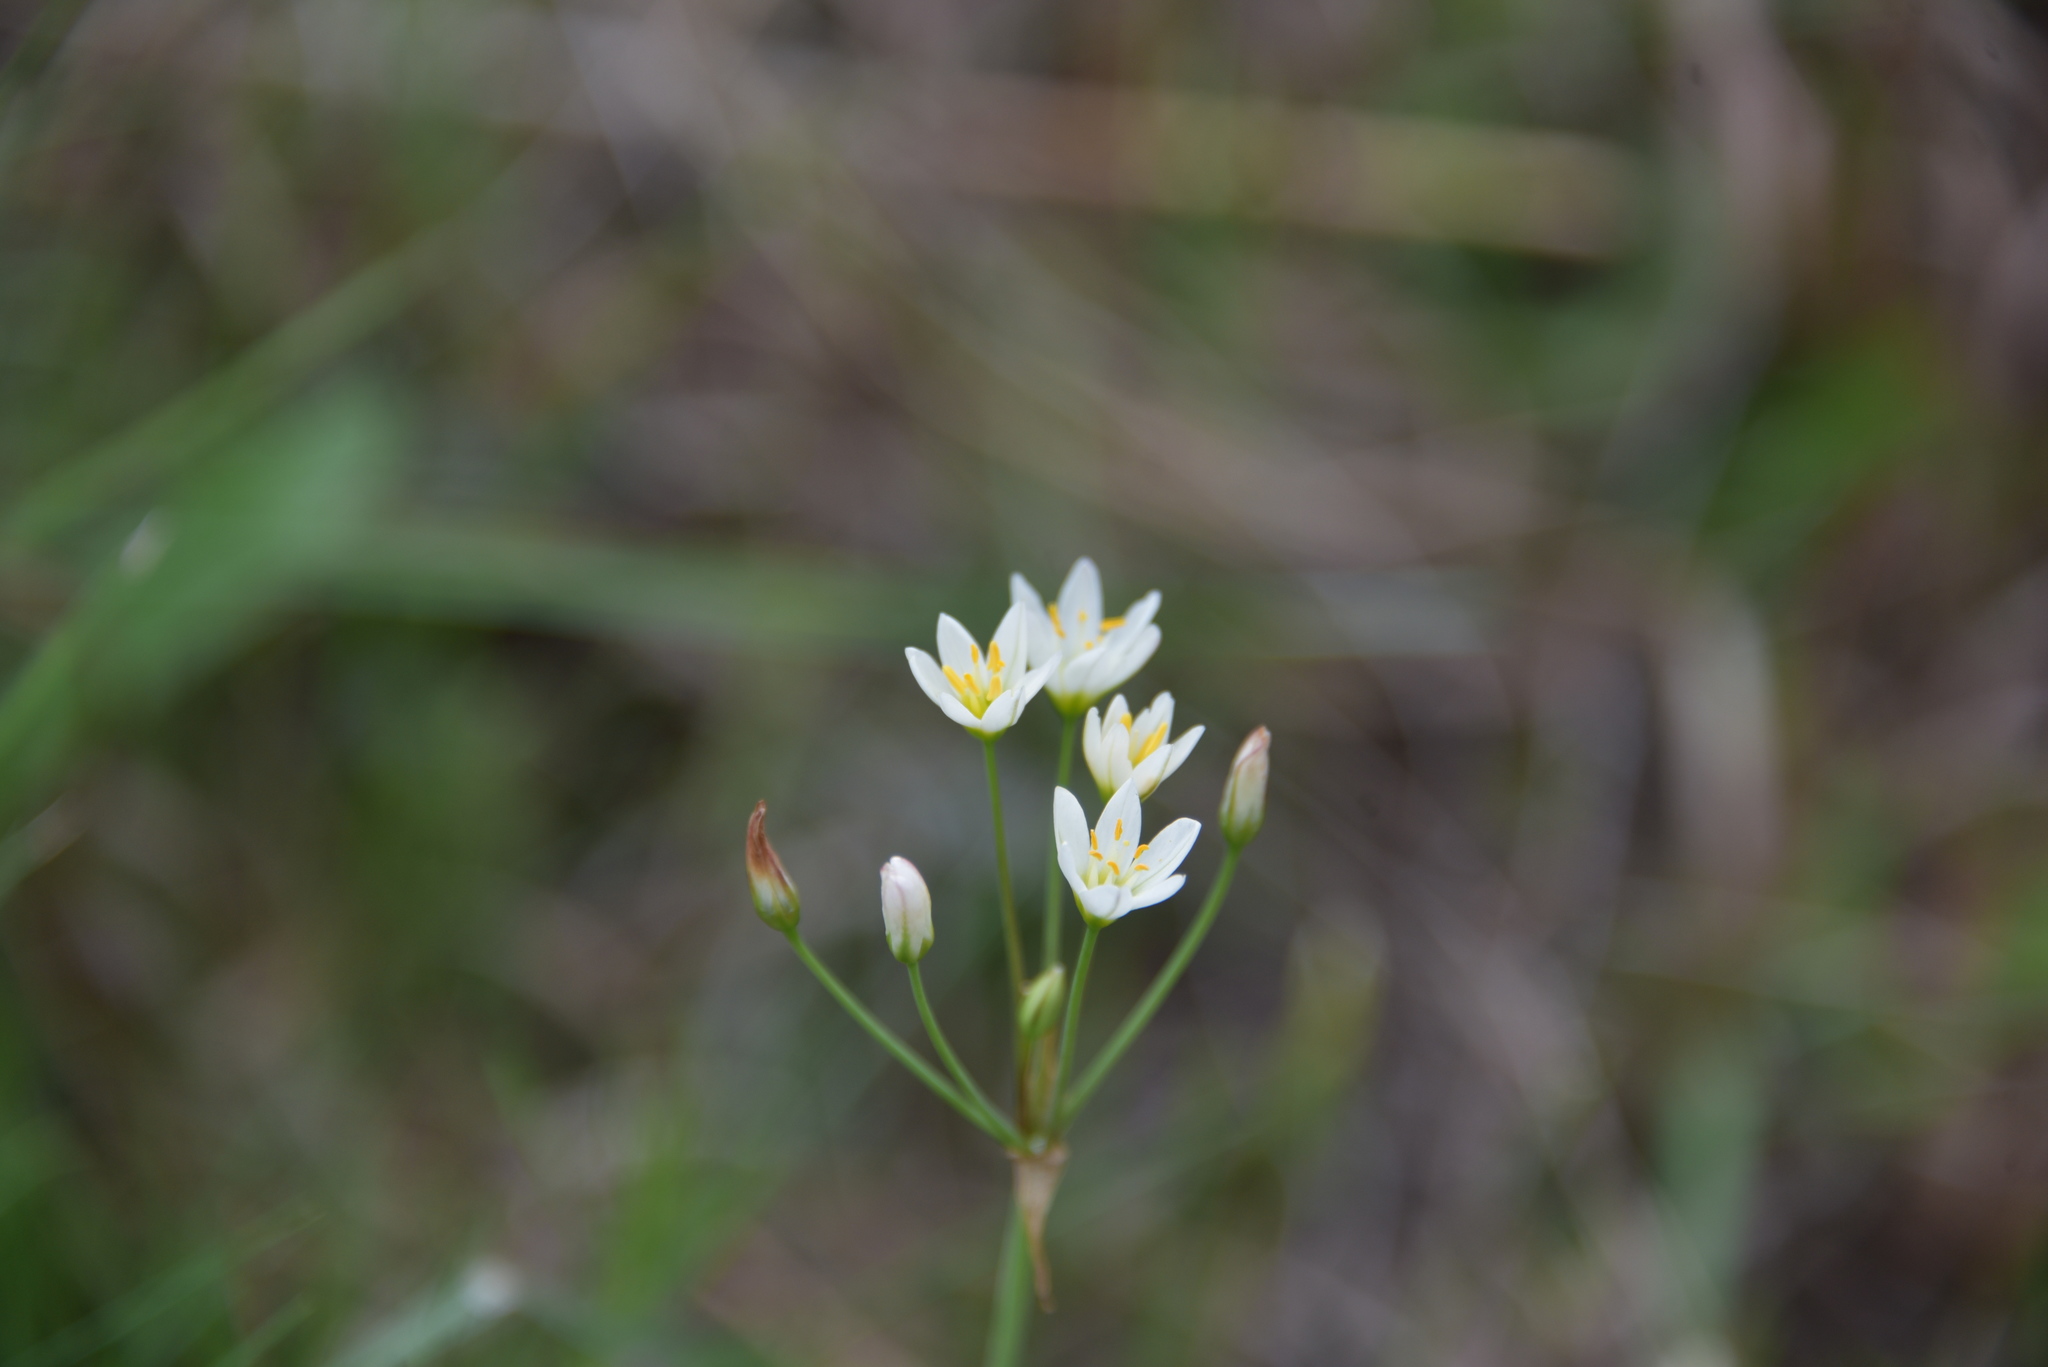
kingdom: Plantae
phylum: Tracheophyta
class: Liliopsida
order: Asparagales
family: Amaryllidaceae
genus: Nothoscordum
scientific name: Nothoscordum bivalve
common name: Crow-poison
